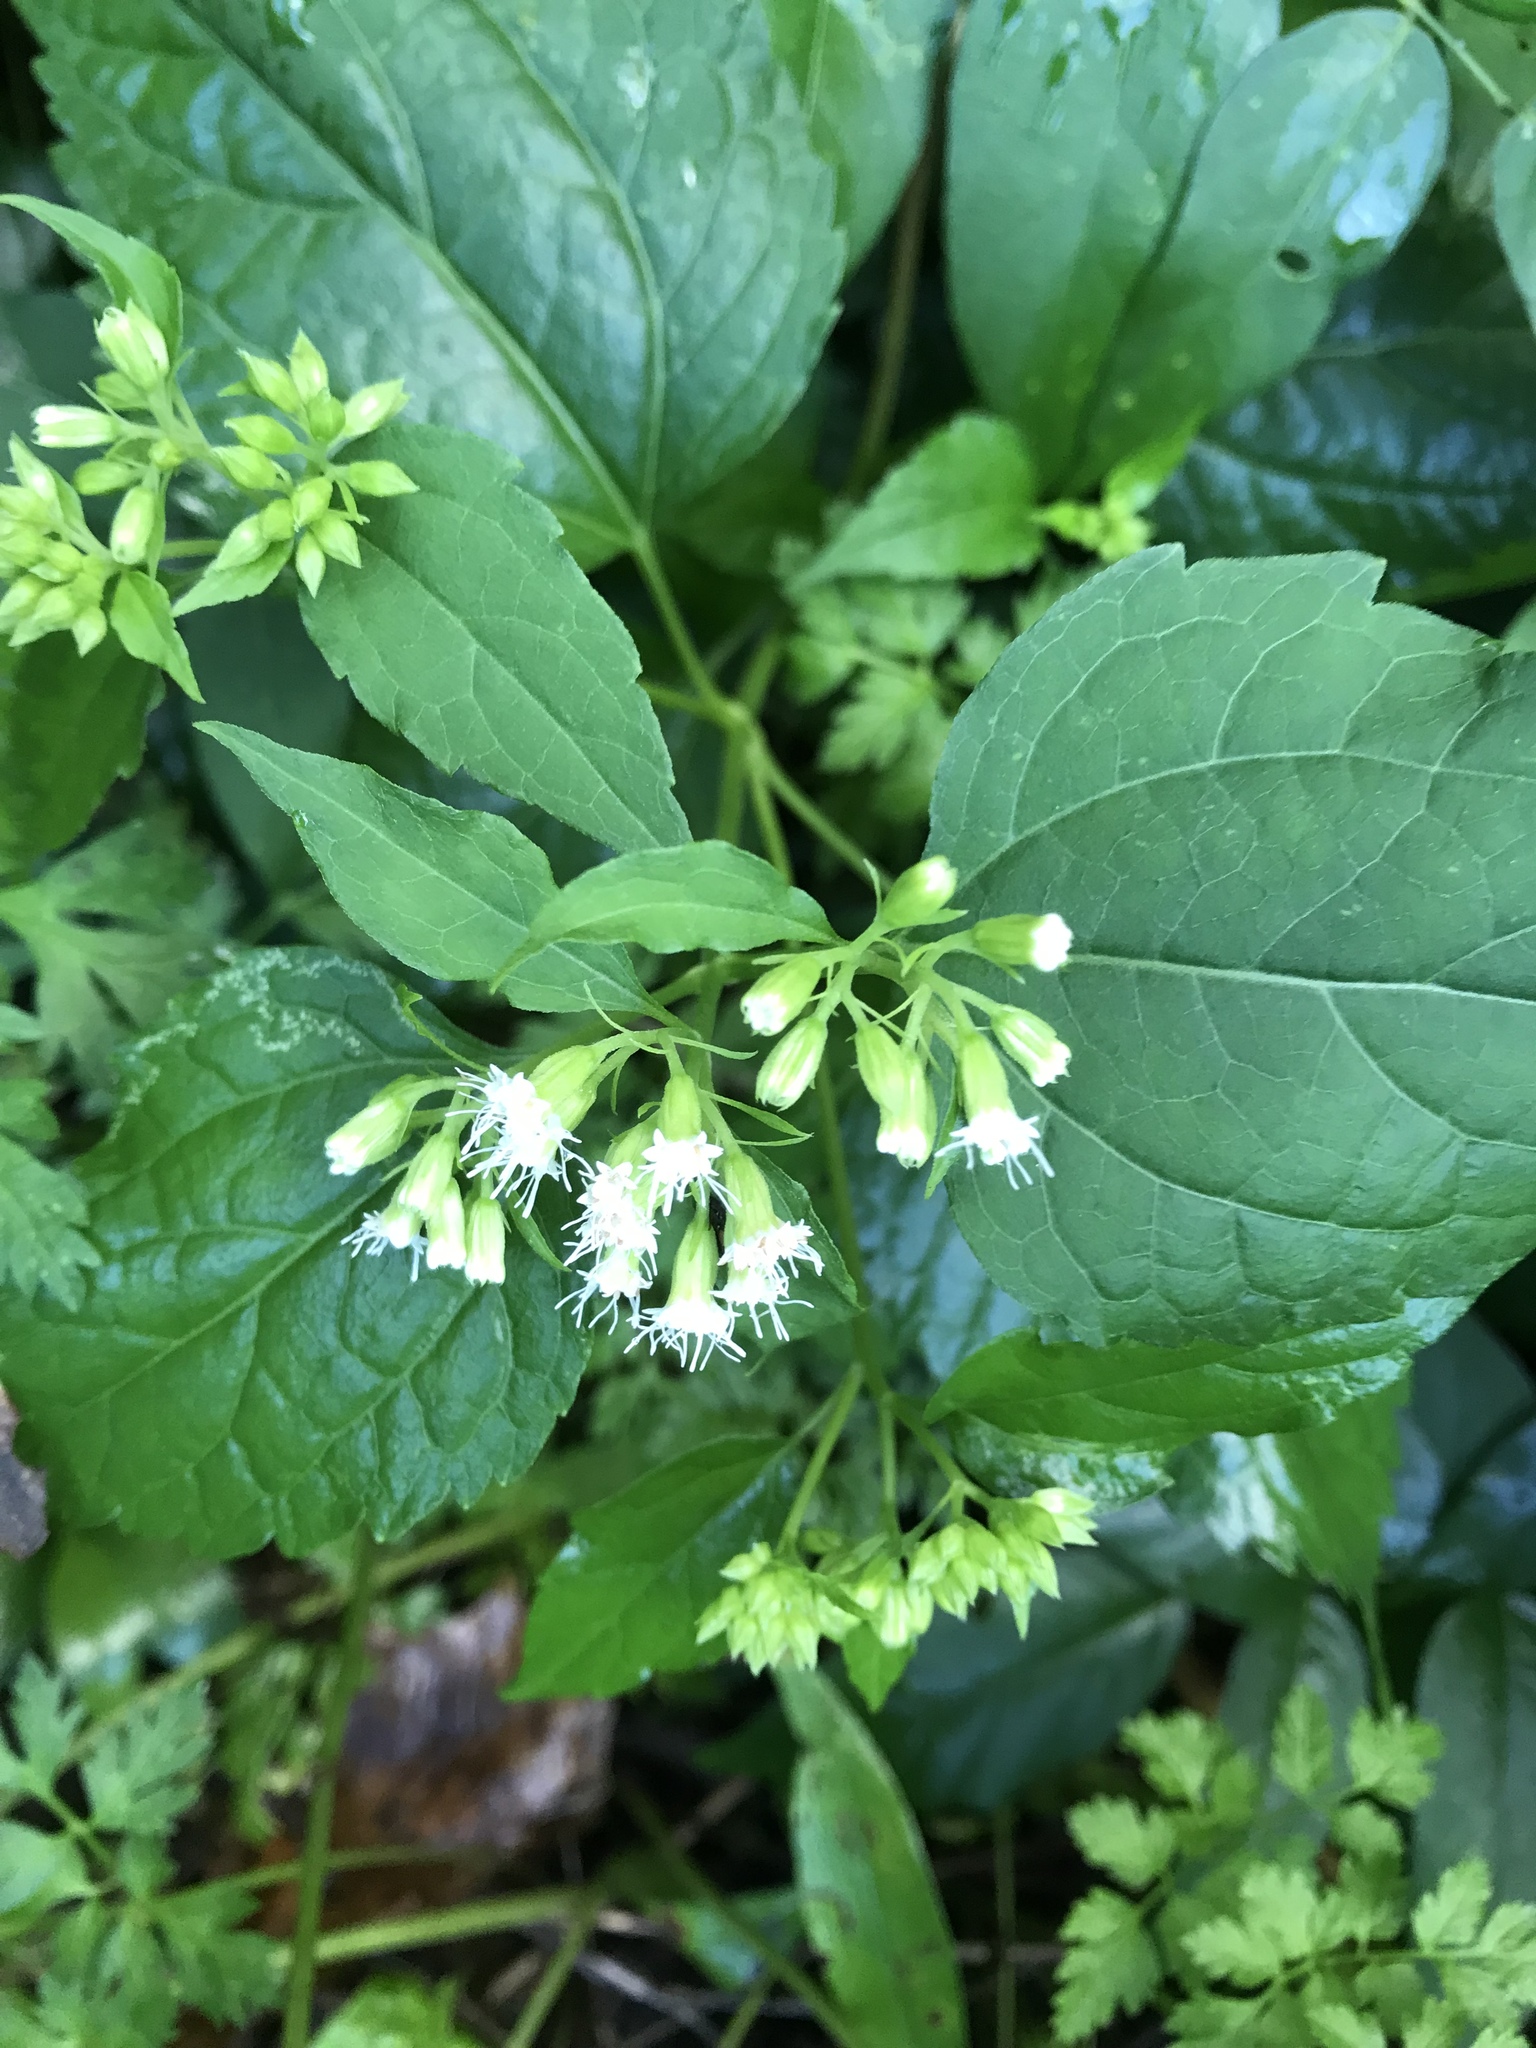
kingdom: Plantae
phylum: Tracheophyta
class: Magnoliopsida
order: Asterales
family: Asteraceae
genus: Ageratina
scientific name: Ageratina altissima
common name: White snakeroot
